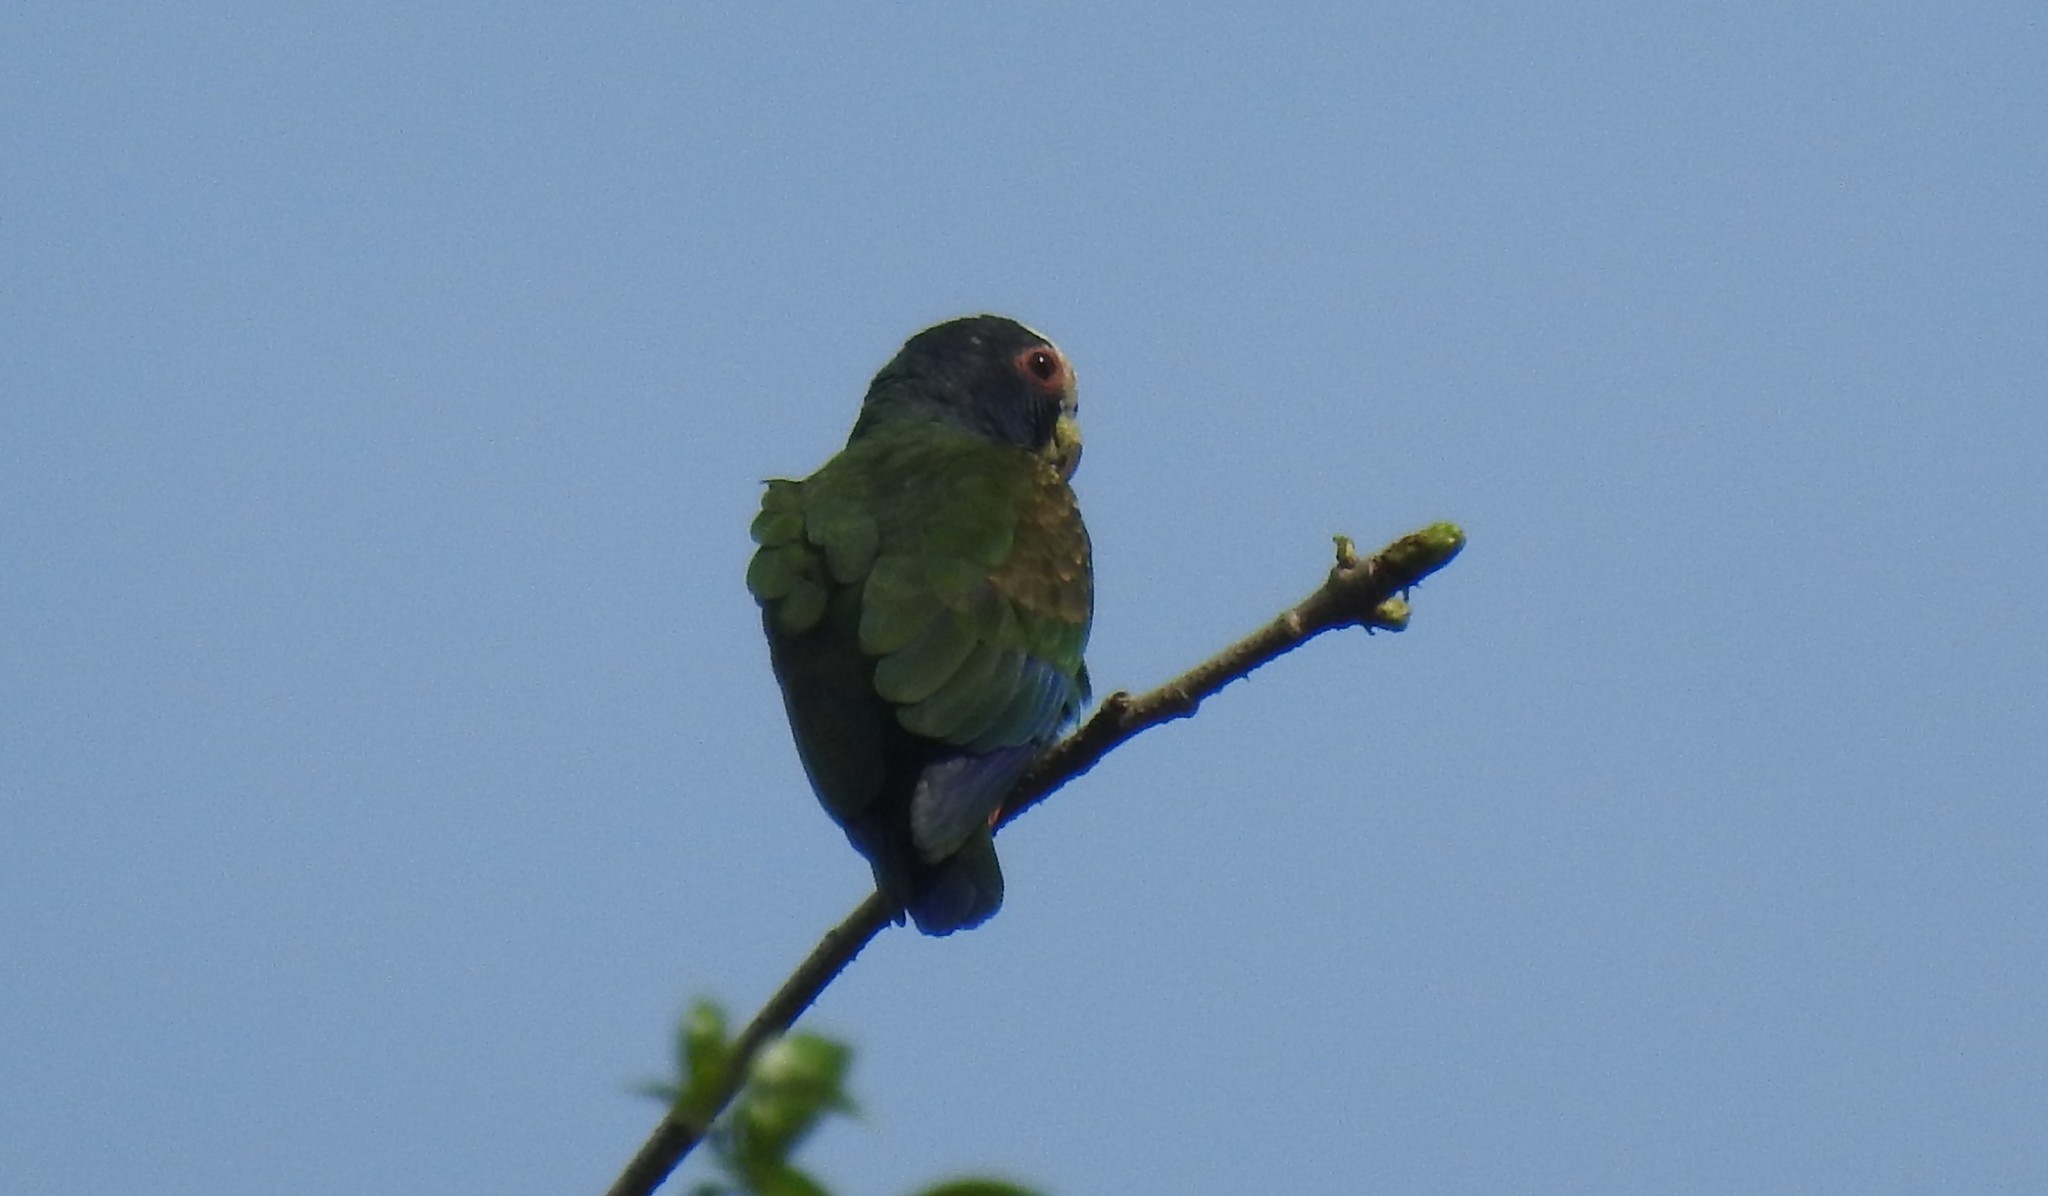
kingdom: Animalia
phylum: Chordata
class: Aves
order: Psittaciformes
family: Psittacidae
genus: Pionus
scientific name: Pionus senilis
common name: White-crowned parrot
